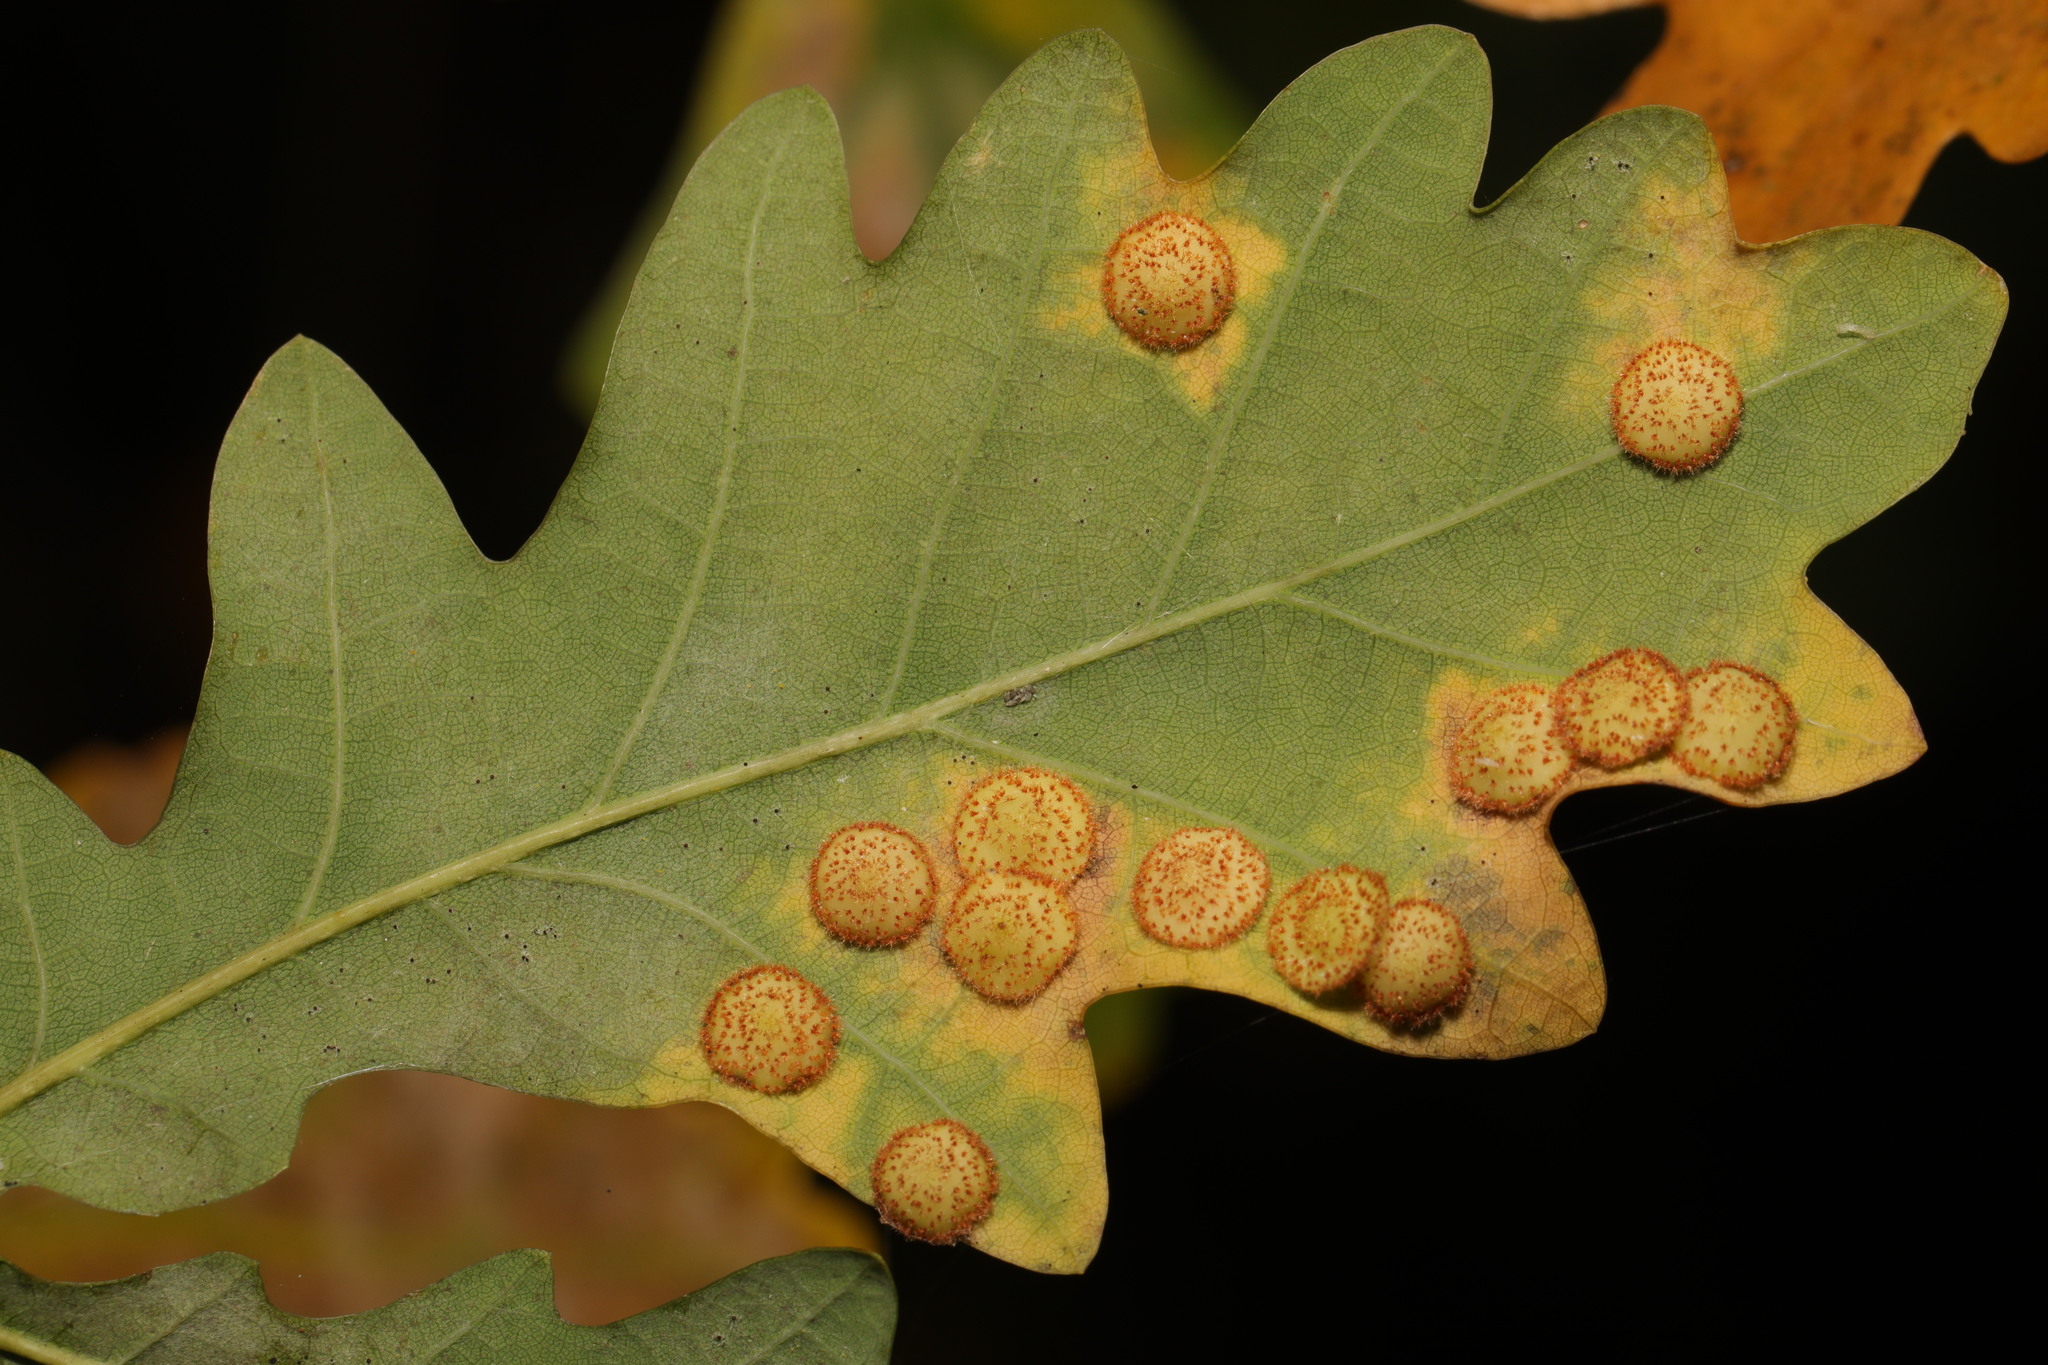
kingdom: Animalia
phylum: Arthropoda
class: Insecta
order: Hymenoptera
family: Cynipidae
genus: Neuroterus
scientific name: Neuroterus quercusbaccarum
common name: Common spangle gall
